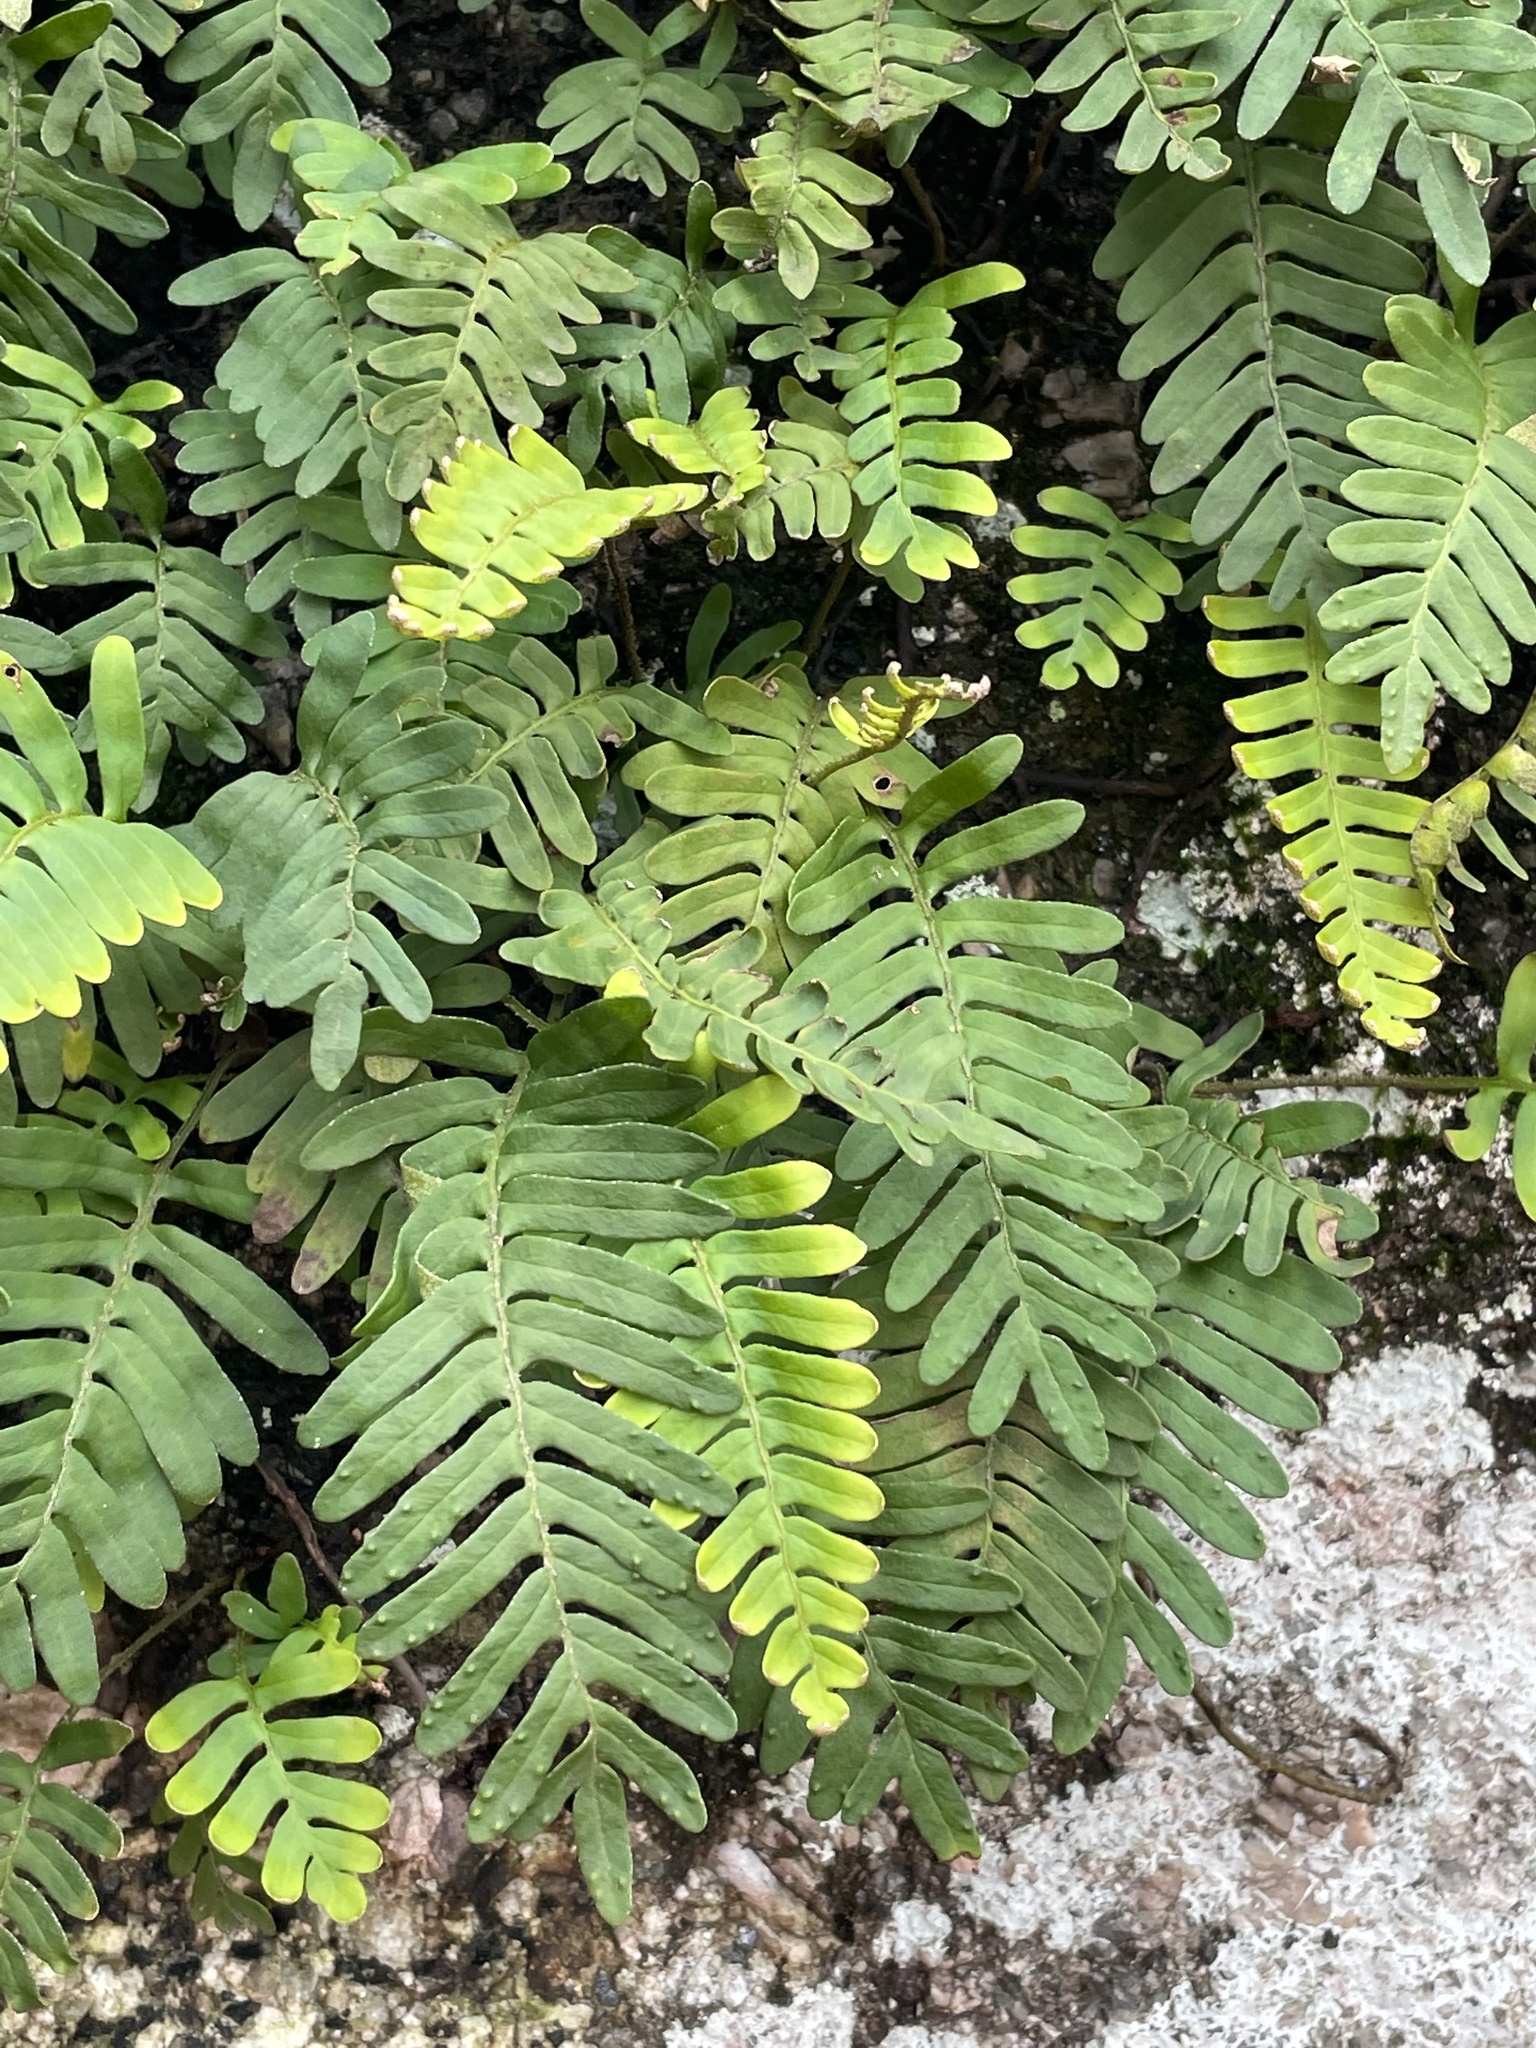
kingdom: Plantae
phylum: Tracheophyta
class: Polypodiopsida
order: Polypodiales
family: Polypodiaceae
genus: Pleopeltis
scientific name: Pleopeltis michauxiana
